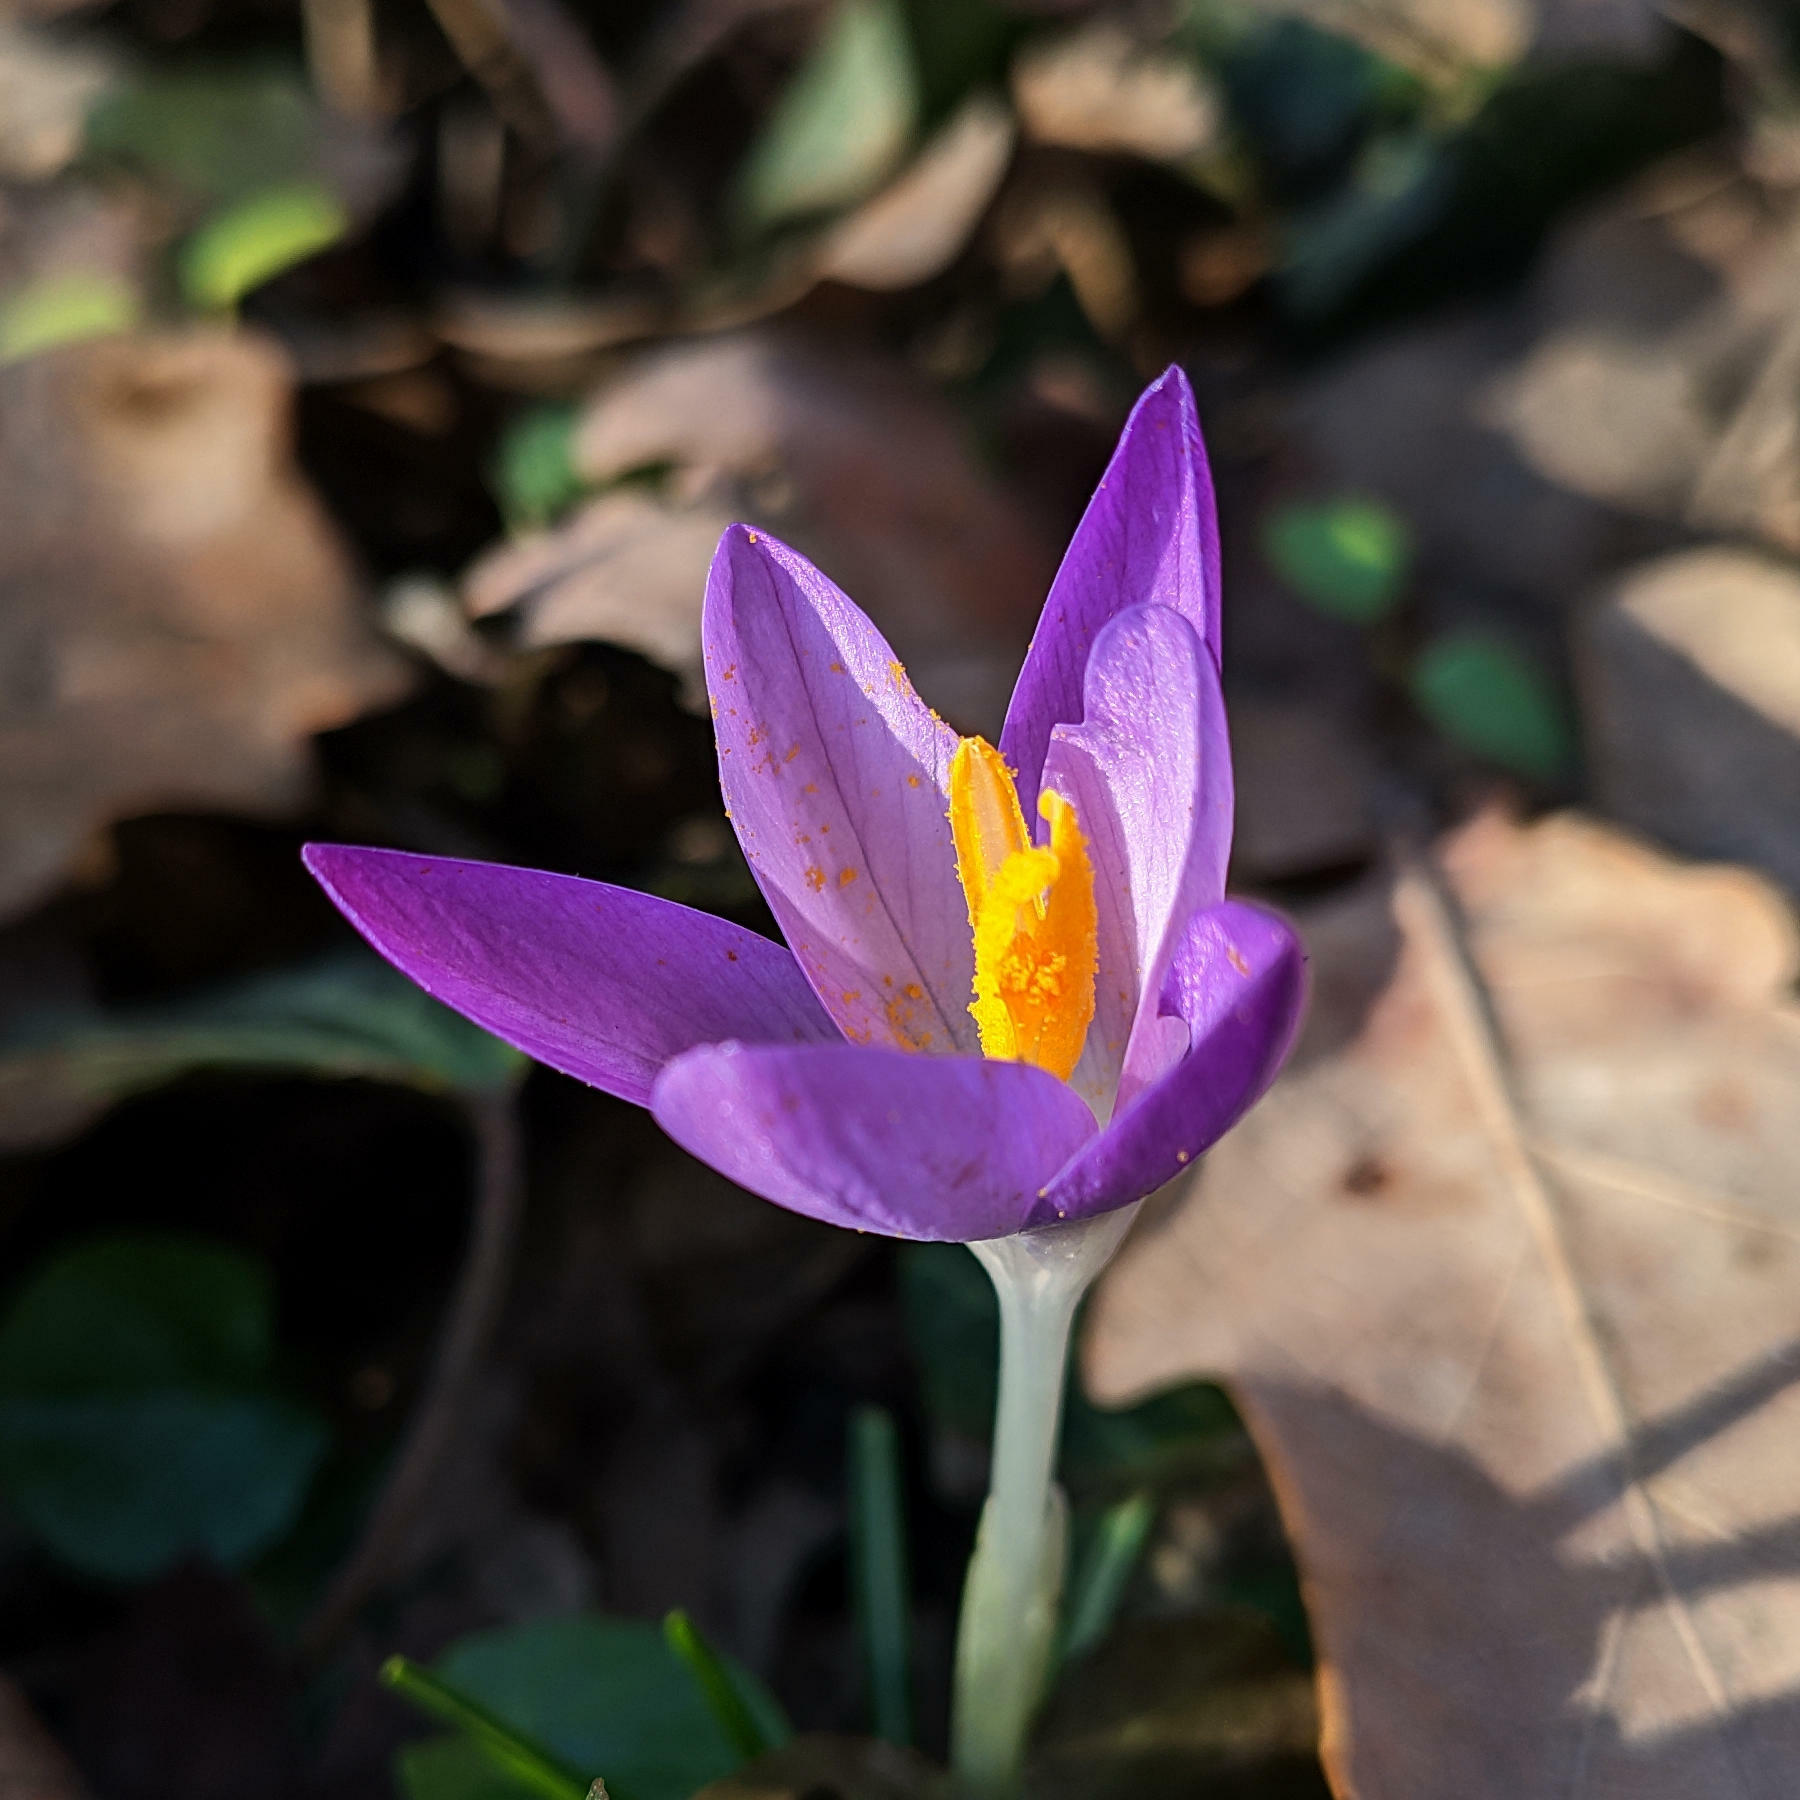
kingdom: Plantae
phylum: Tracheophyta
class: Liliopsida
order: Asparagales
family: Iridaceae
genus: Crocus
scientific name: Crocus tommasinianus
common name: Early crocus
